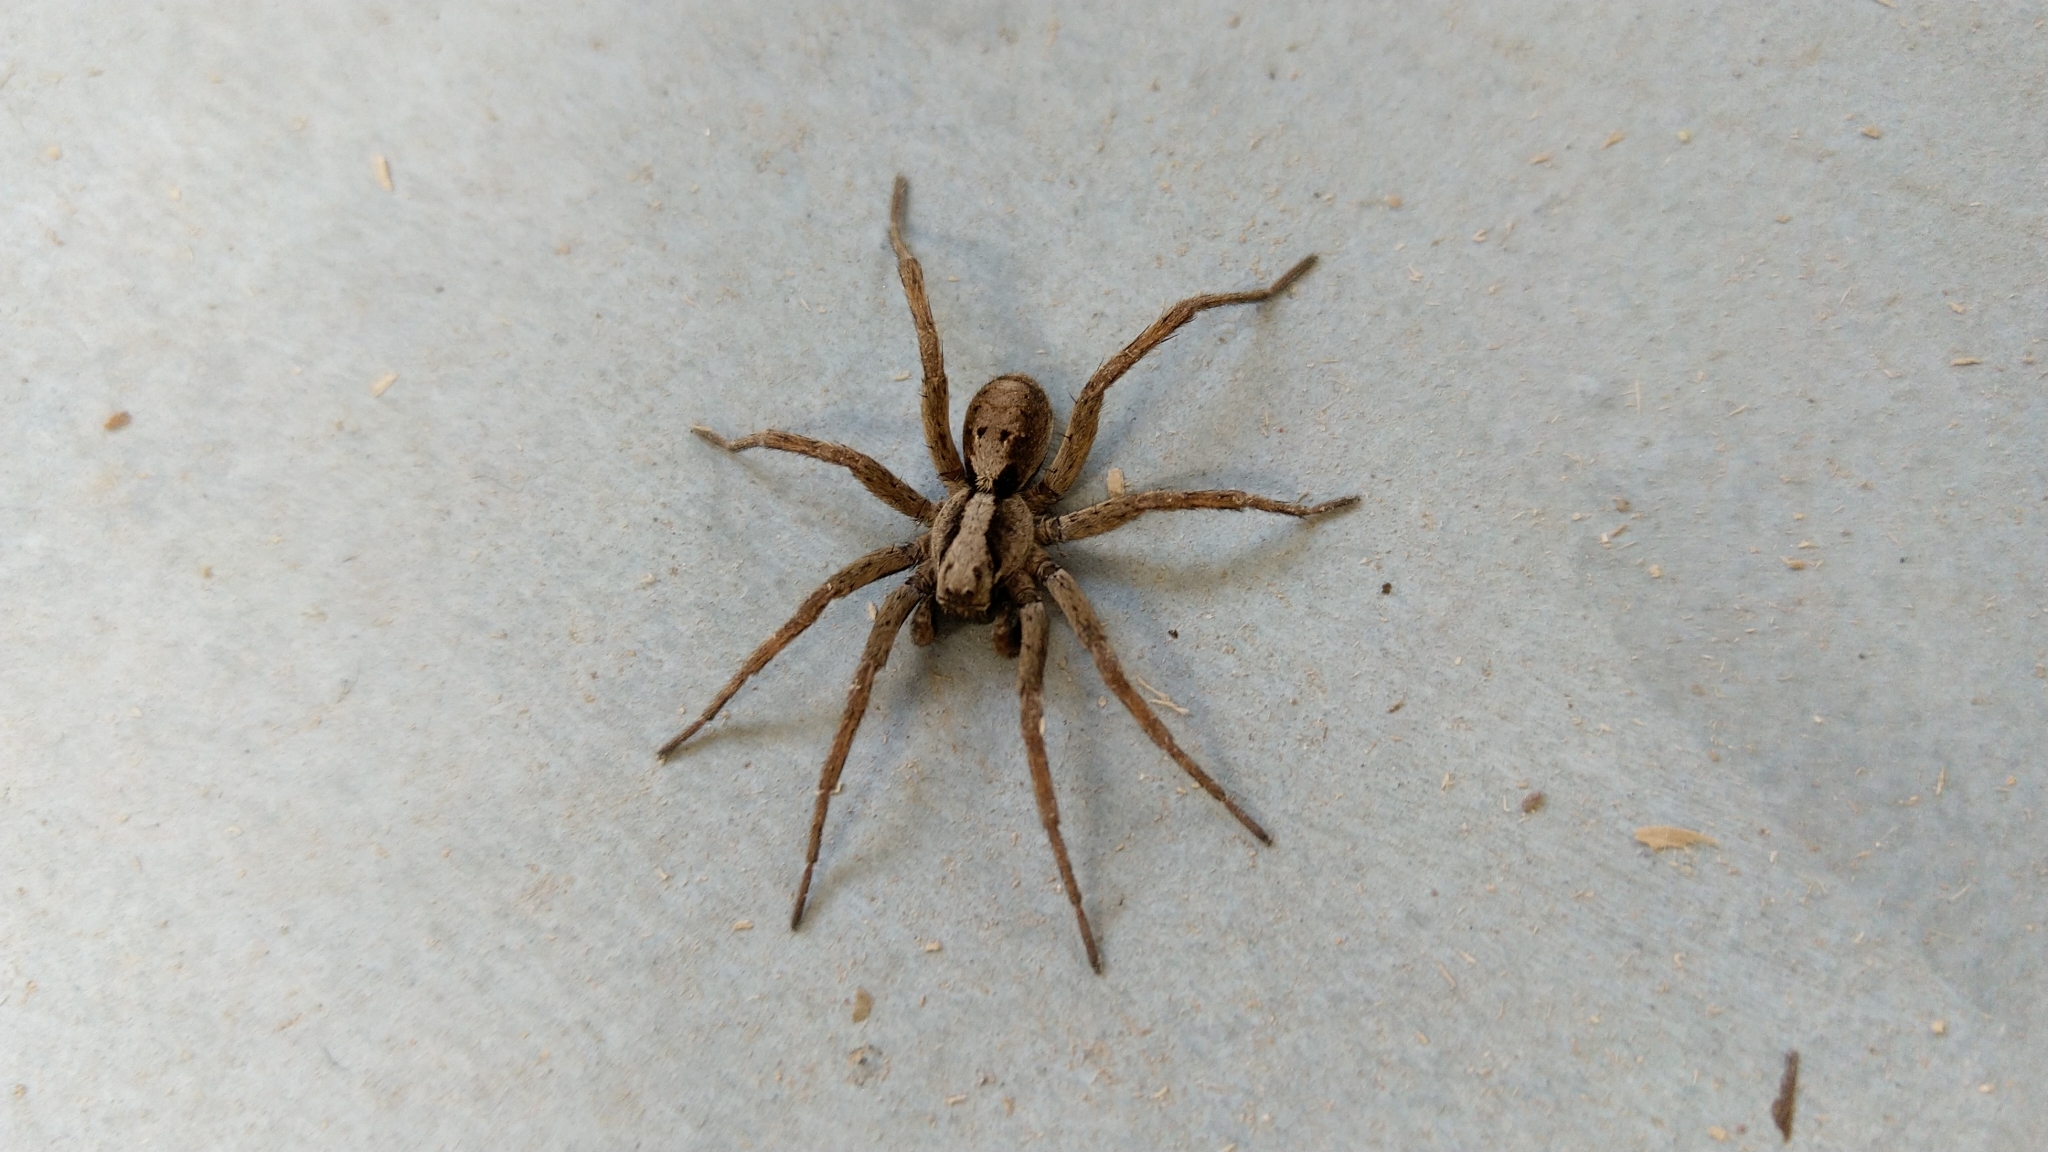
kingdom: Animalia
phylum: Arthropoda
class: Arachnida
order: Araneae
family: Lycosidae
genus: Alopecosa
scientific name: Alopecosa inquilina
